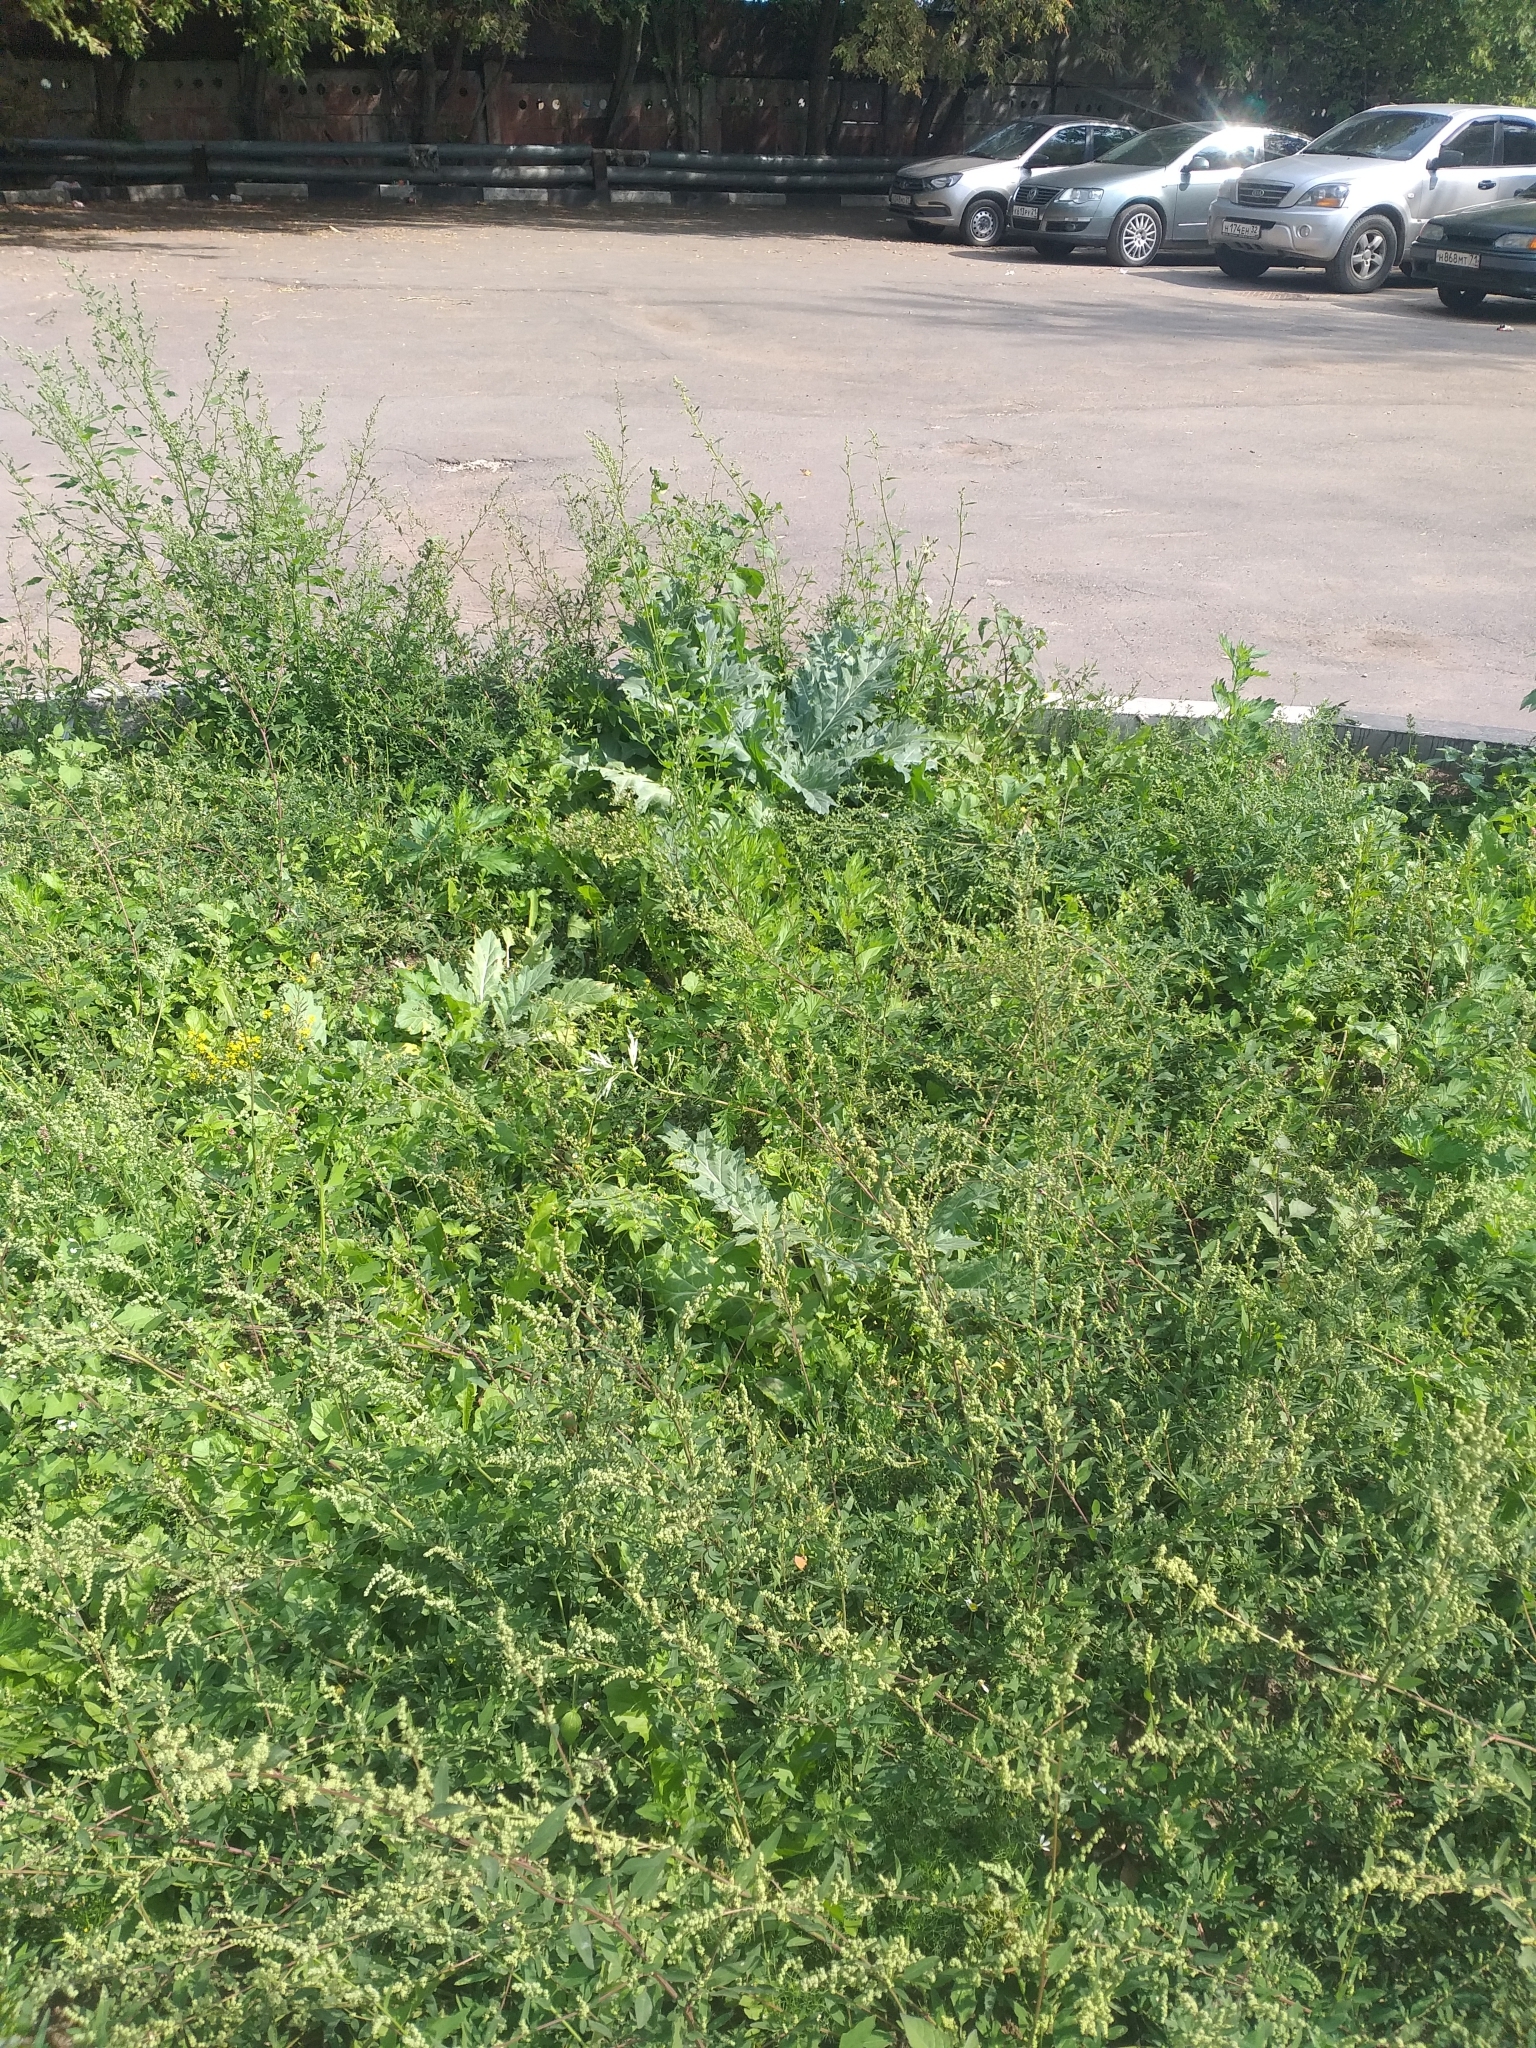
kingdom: Plantae
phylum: Tracheophyta
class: Magnoliopsida
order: Solanales
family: Solanaceae
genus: Hyoscyamus
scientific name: Hyoscyamus niger
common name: Henbane
